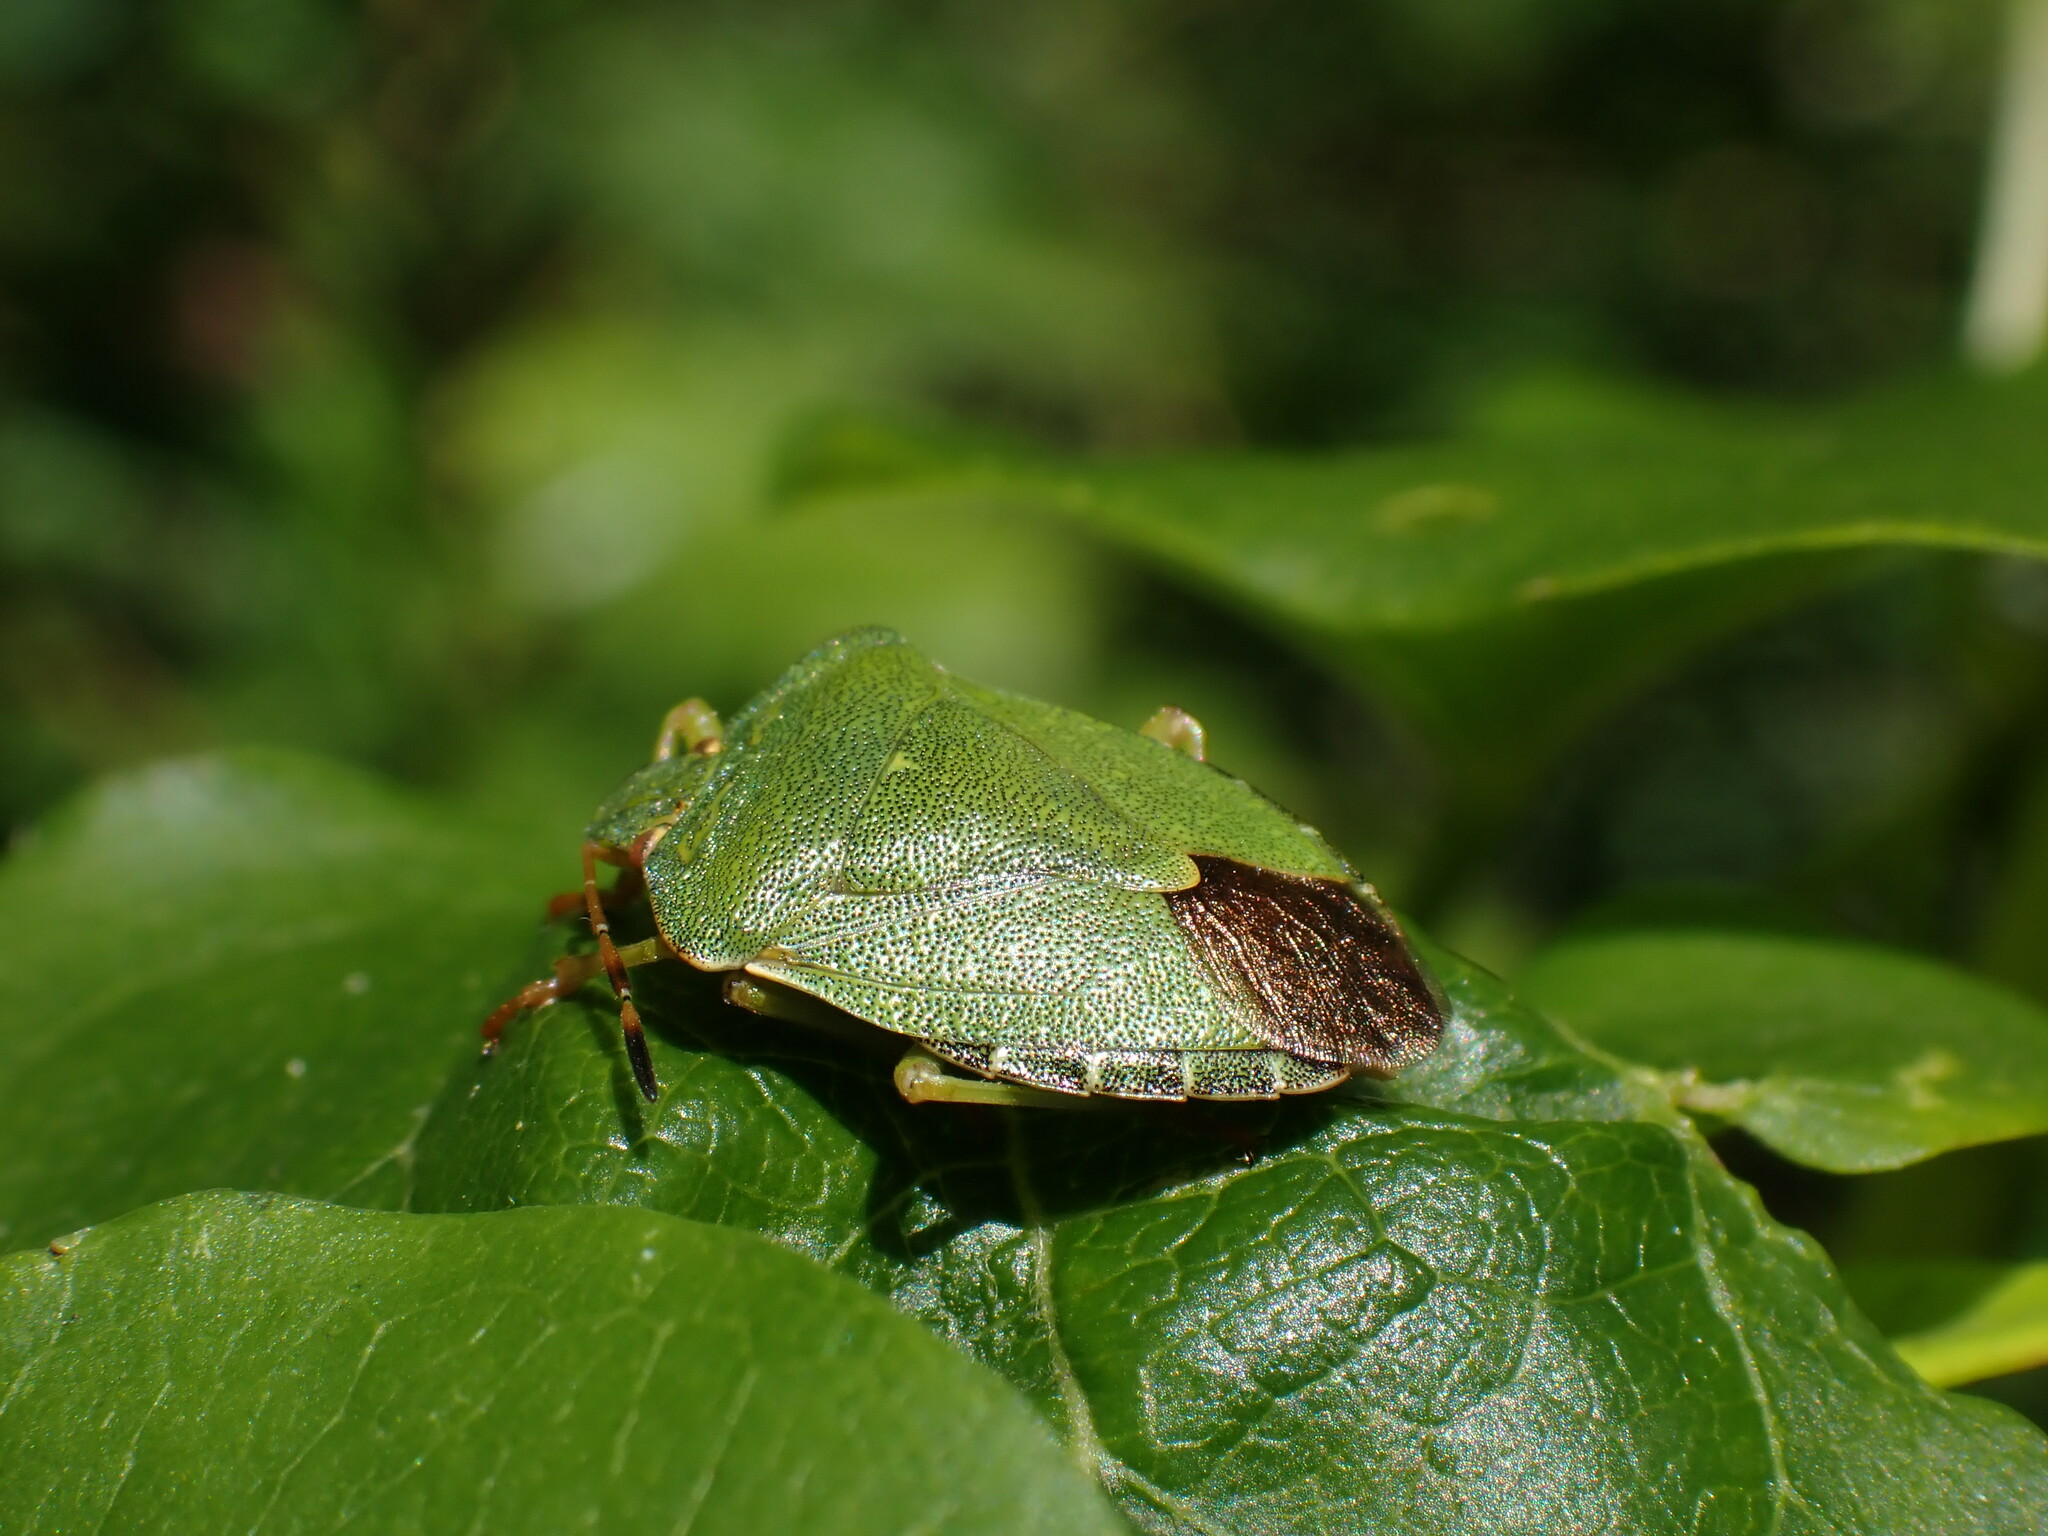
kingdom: Animalia
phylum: Arthropoda
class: Insecta
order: Hemiptera
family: Pentatomidae
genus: Palomena
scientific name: Palomena prasina
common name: Green shieldbug
